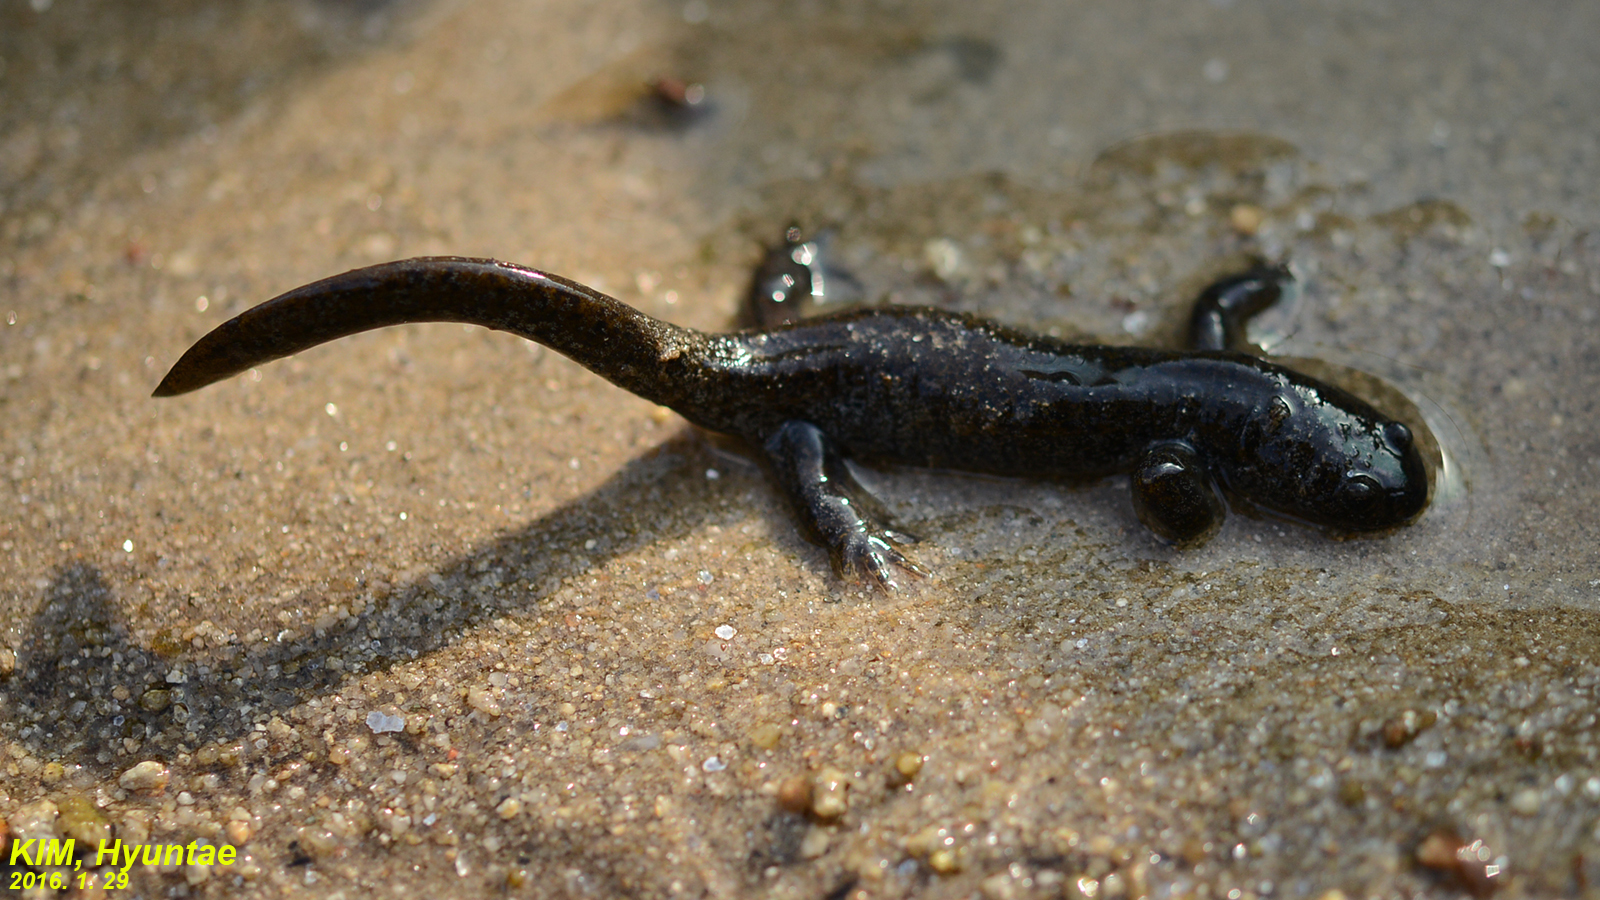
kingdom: Animalia
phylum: Chordata
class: Amphibia
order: Caudata
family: Hynobiidae
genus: Hynobius
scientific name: Hynobius leechii
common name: Gensan salamander
